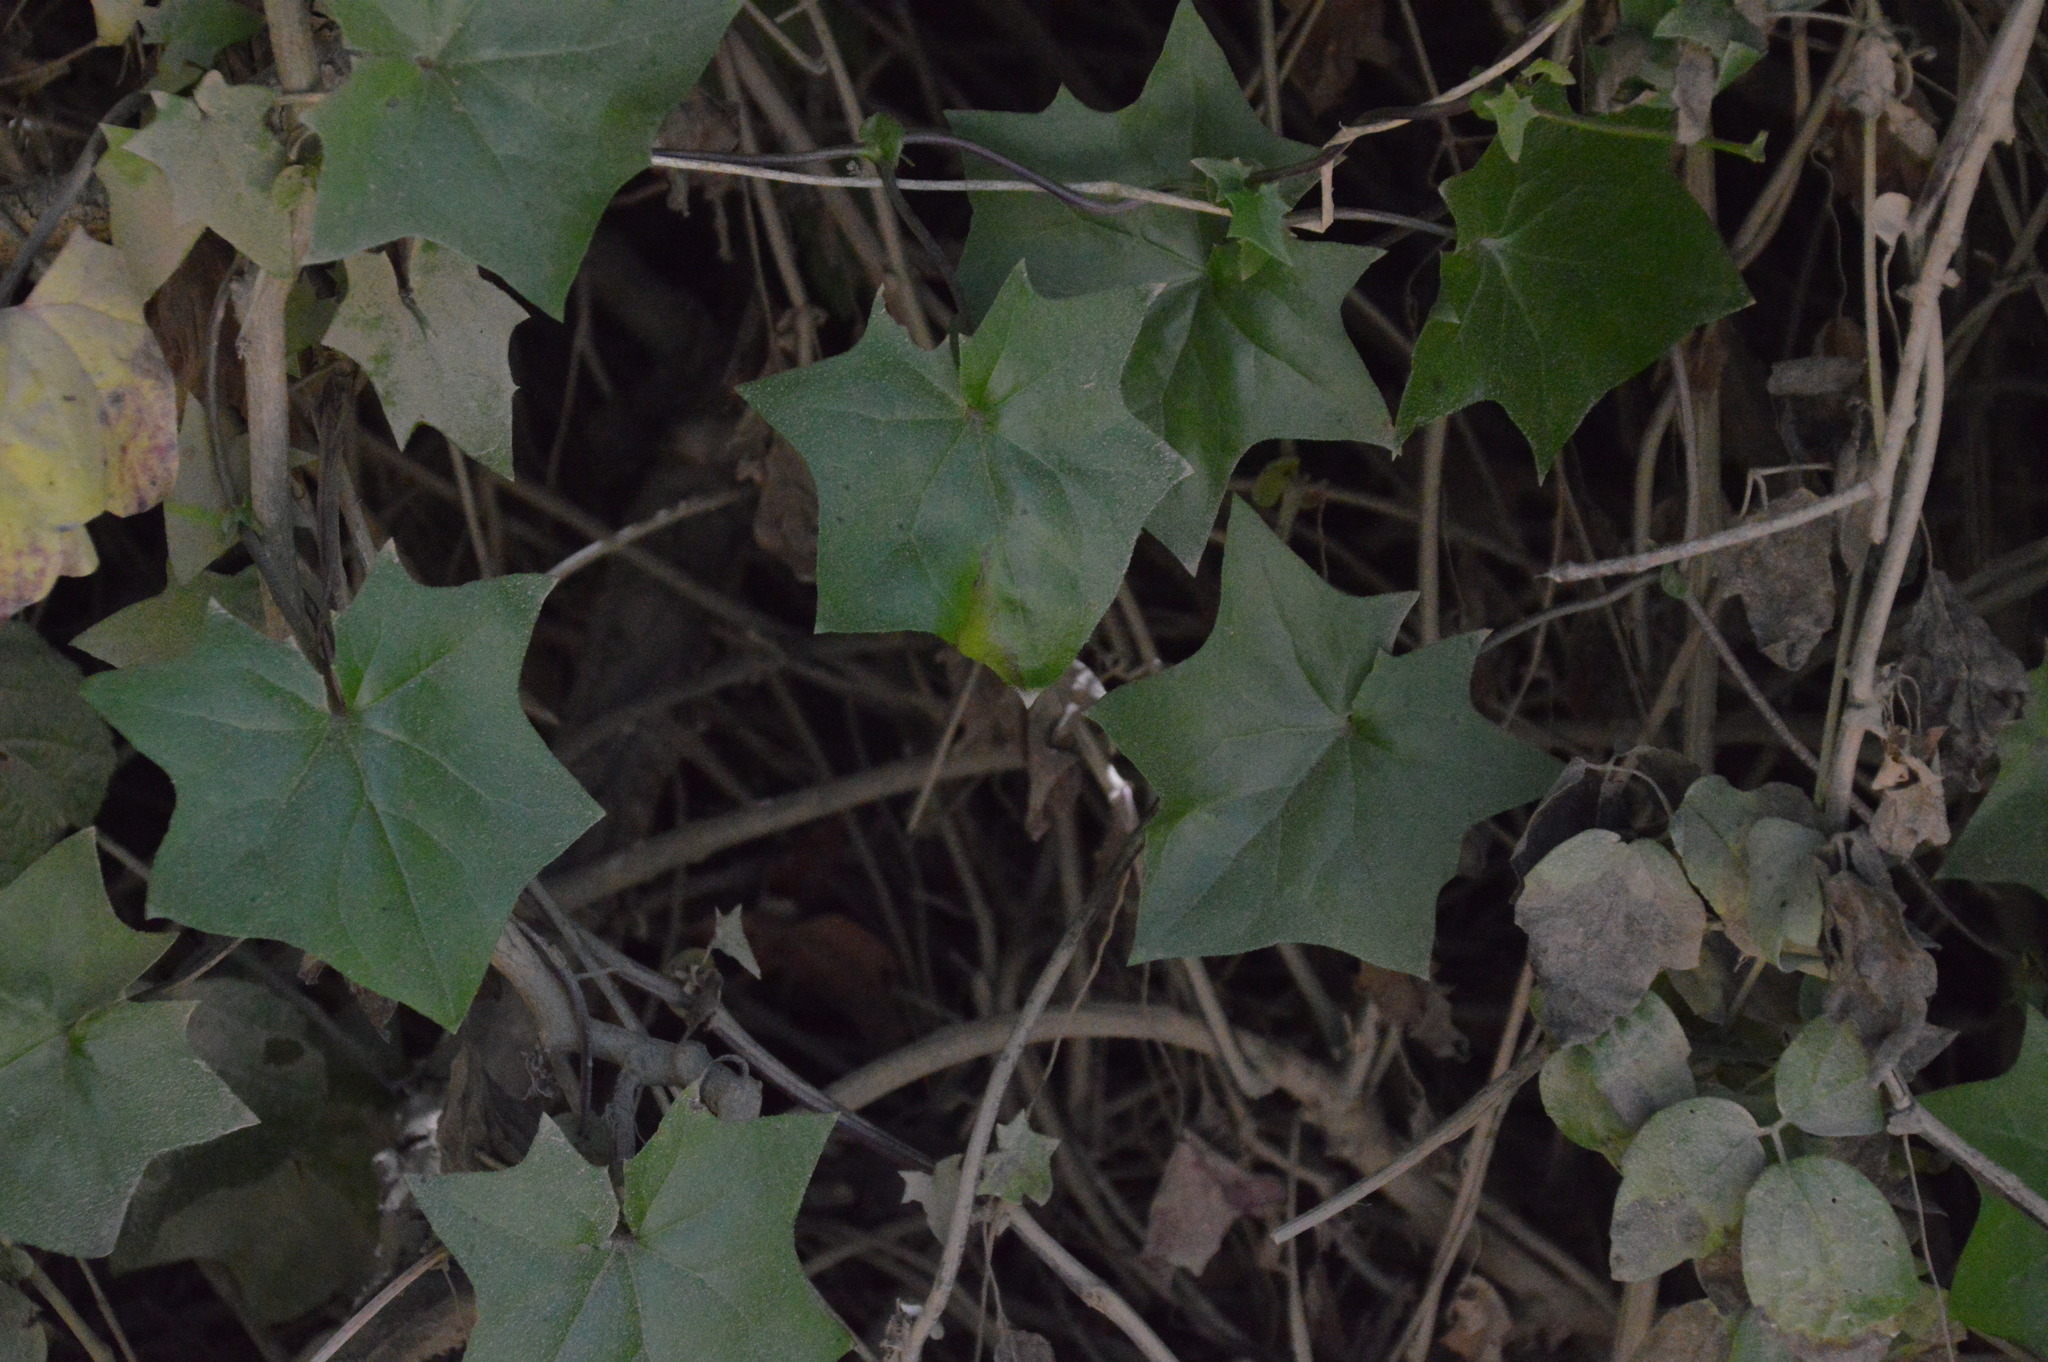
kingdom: Plantae
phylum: Tracheophyta
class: Magnoliopsida
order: Asterales
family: Asteraceae
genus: Delairea
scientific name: Delairea odorata
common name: Cape-ivy
